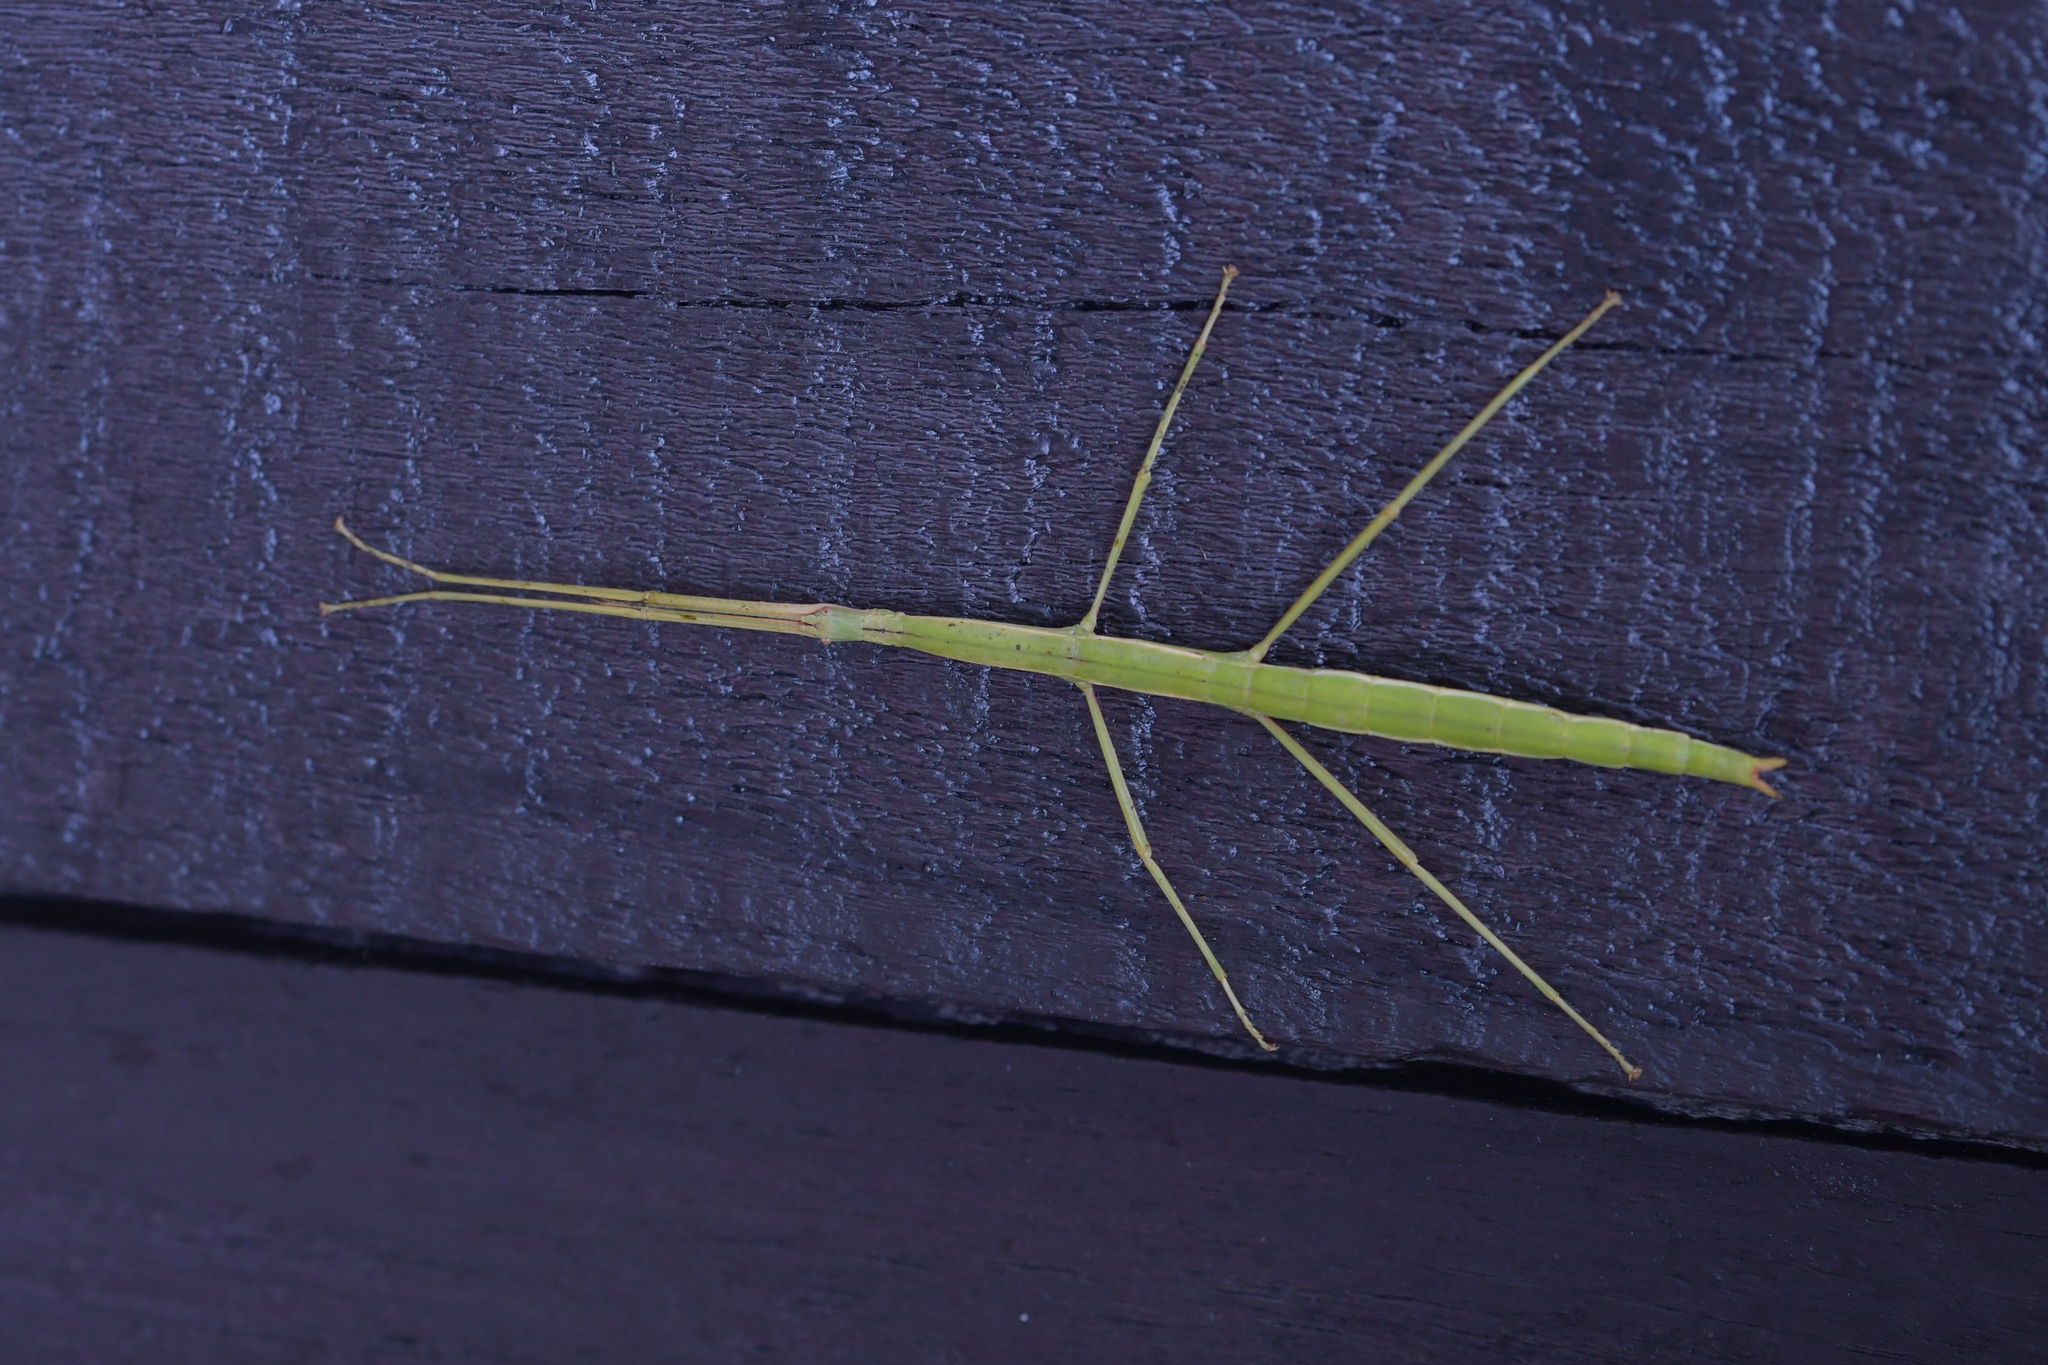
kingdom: Animalia
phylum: Arthropoda
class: Insecta
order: Phasmida
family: Phasmatidae
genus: Clitarchus
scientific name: Clitarchus hookeri
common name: Smooth stick insect
